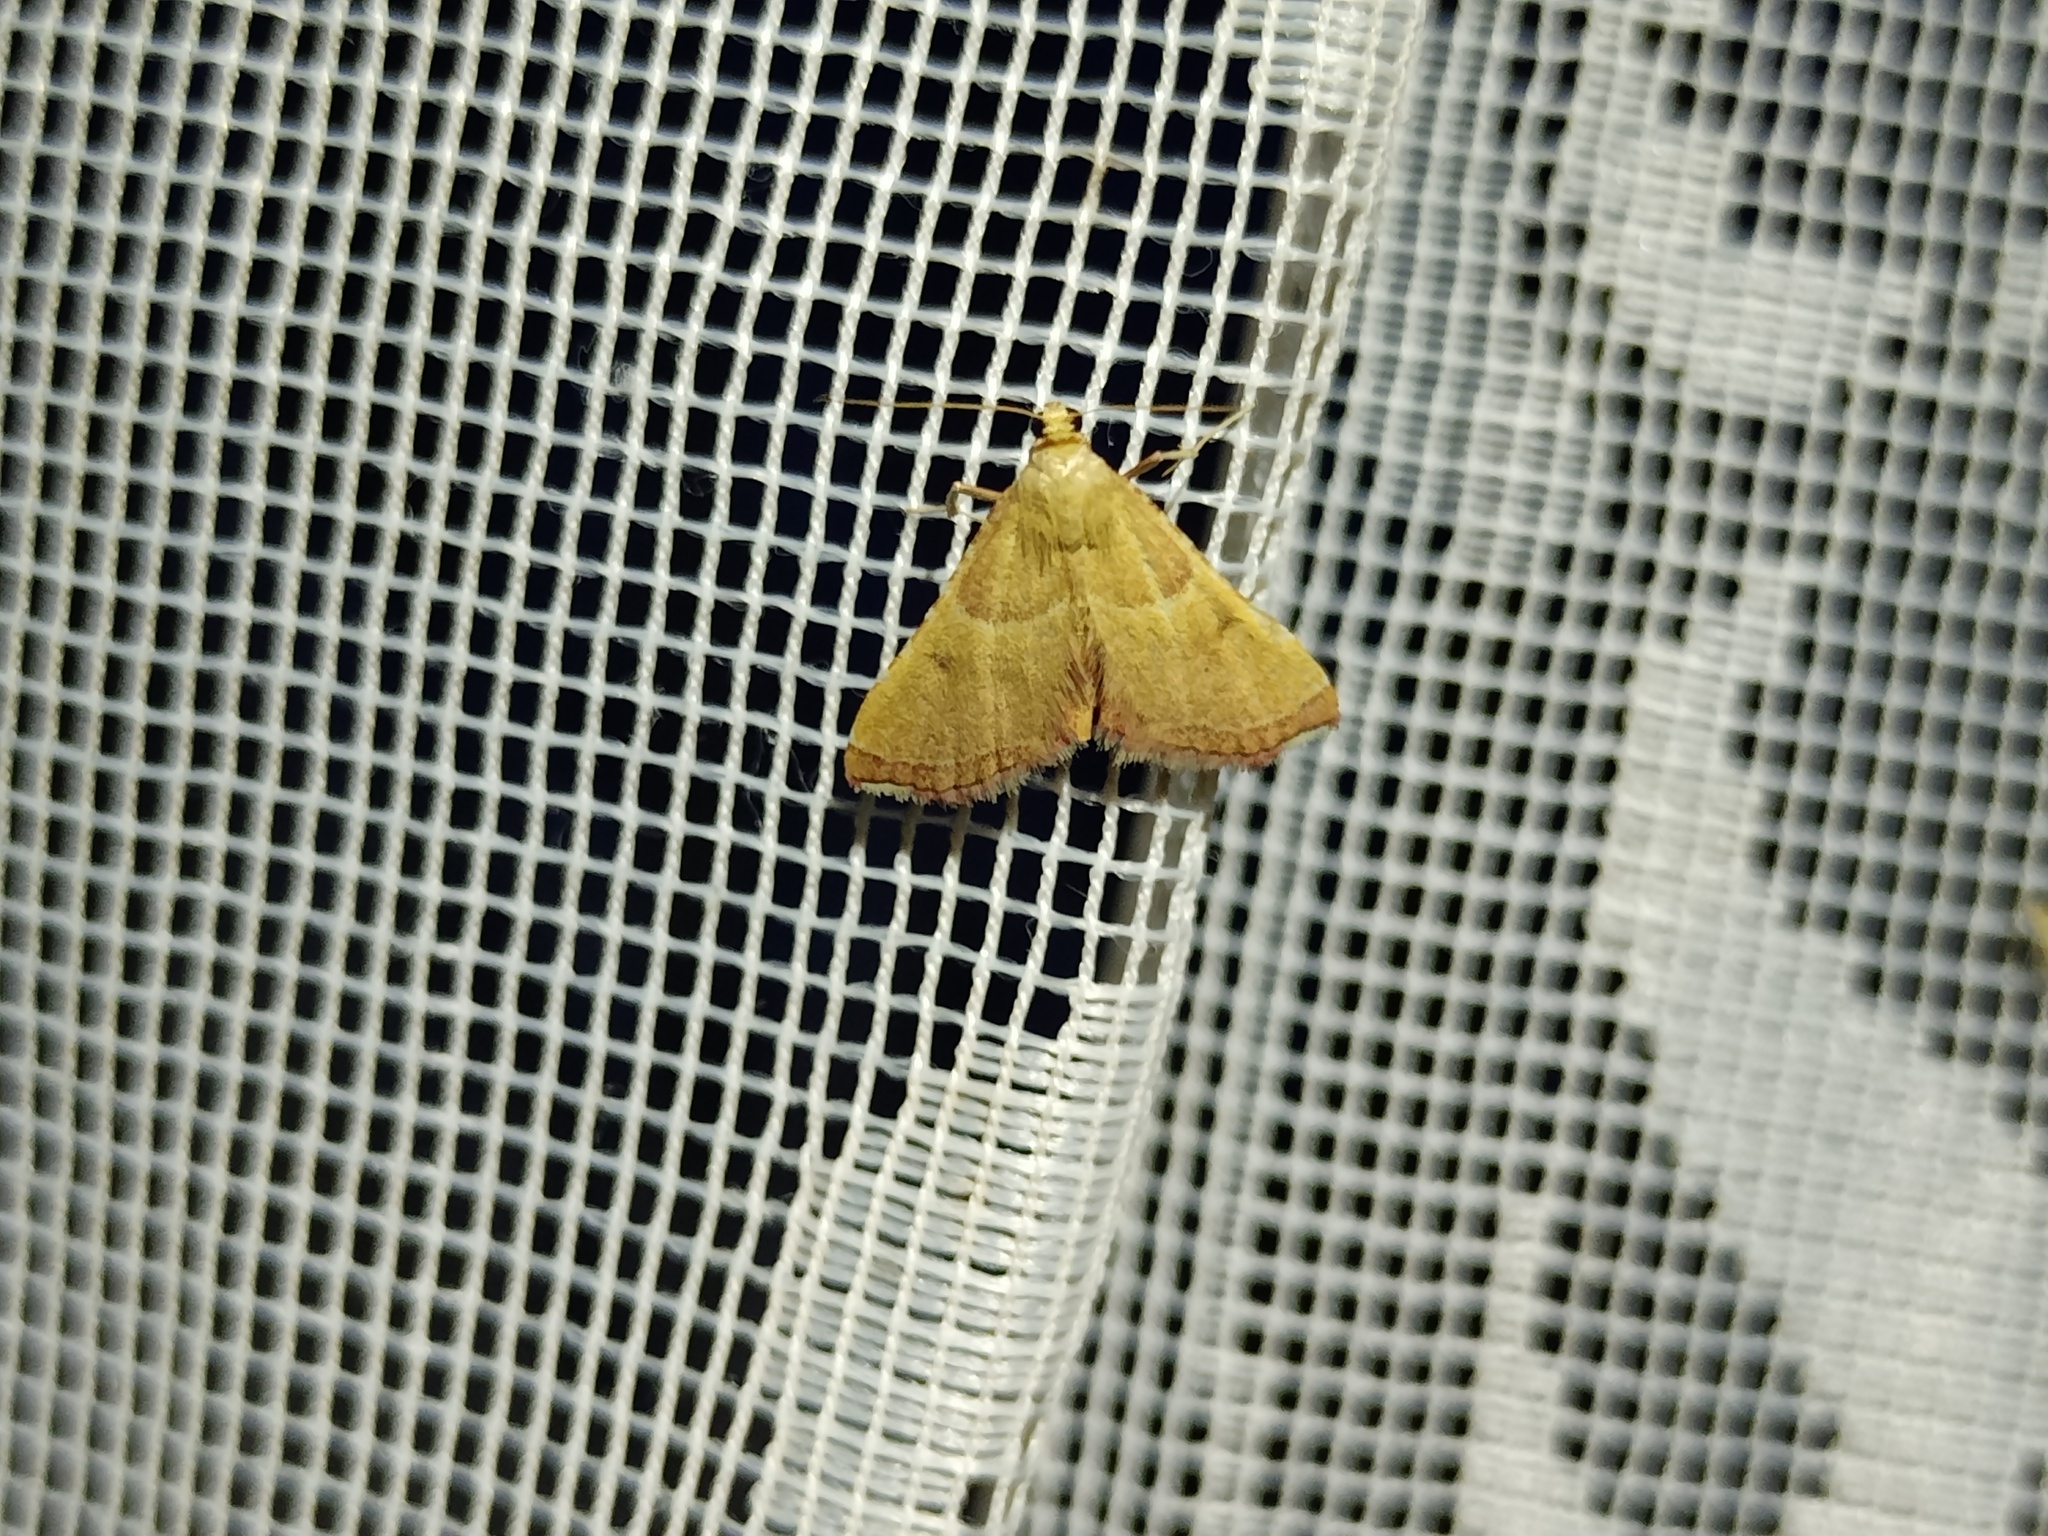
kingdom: Animalia
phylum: Arthropoda
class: Insecta
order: Lepidoptera
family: Pyralidae
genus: Endotricha
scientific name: Endotricha flammealis
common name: Rosy tabby
